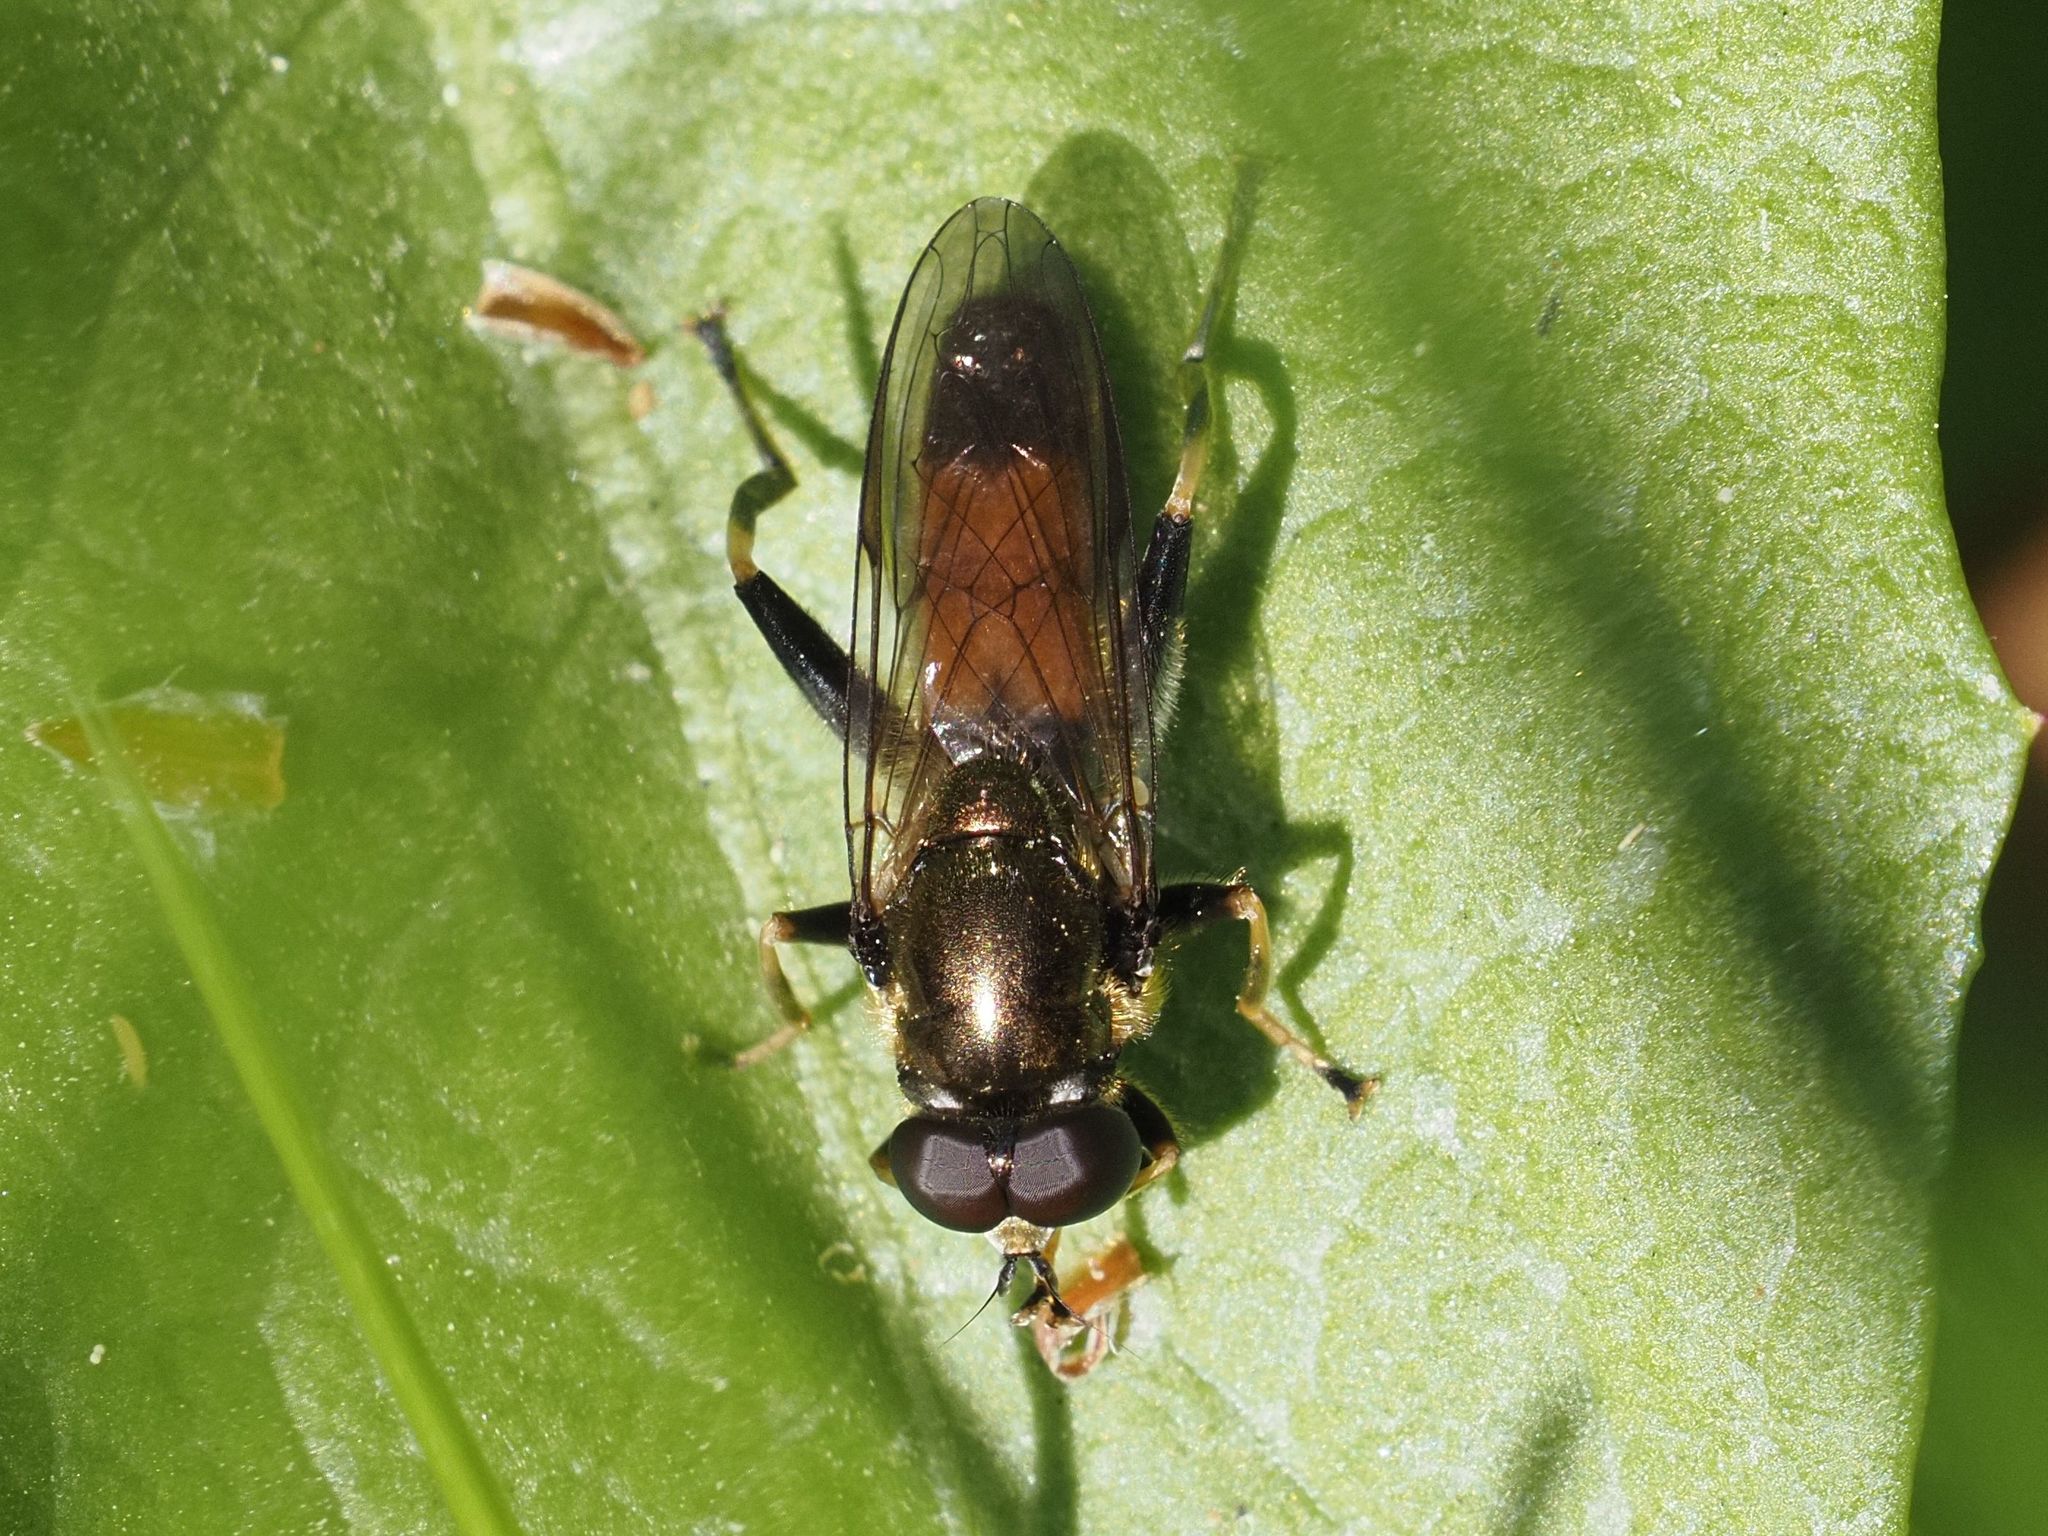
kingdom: Animalia
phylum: Arthropoda
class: Insecta
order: Diptera
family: Syrphidae
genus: Xylota
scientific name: Xylota segnis
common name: Brown-toed forest fly
